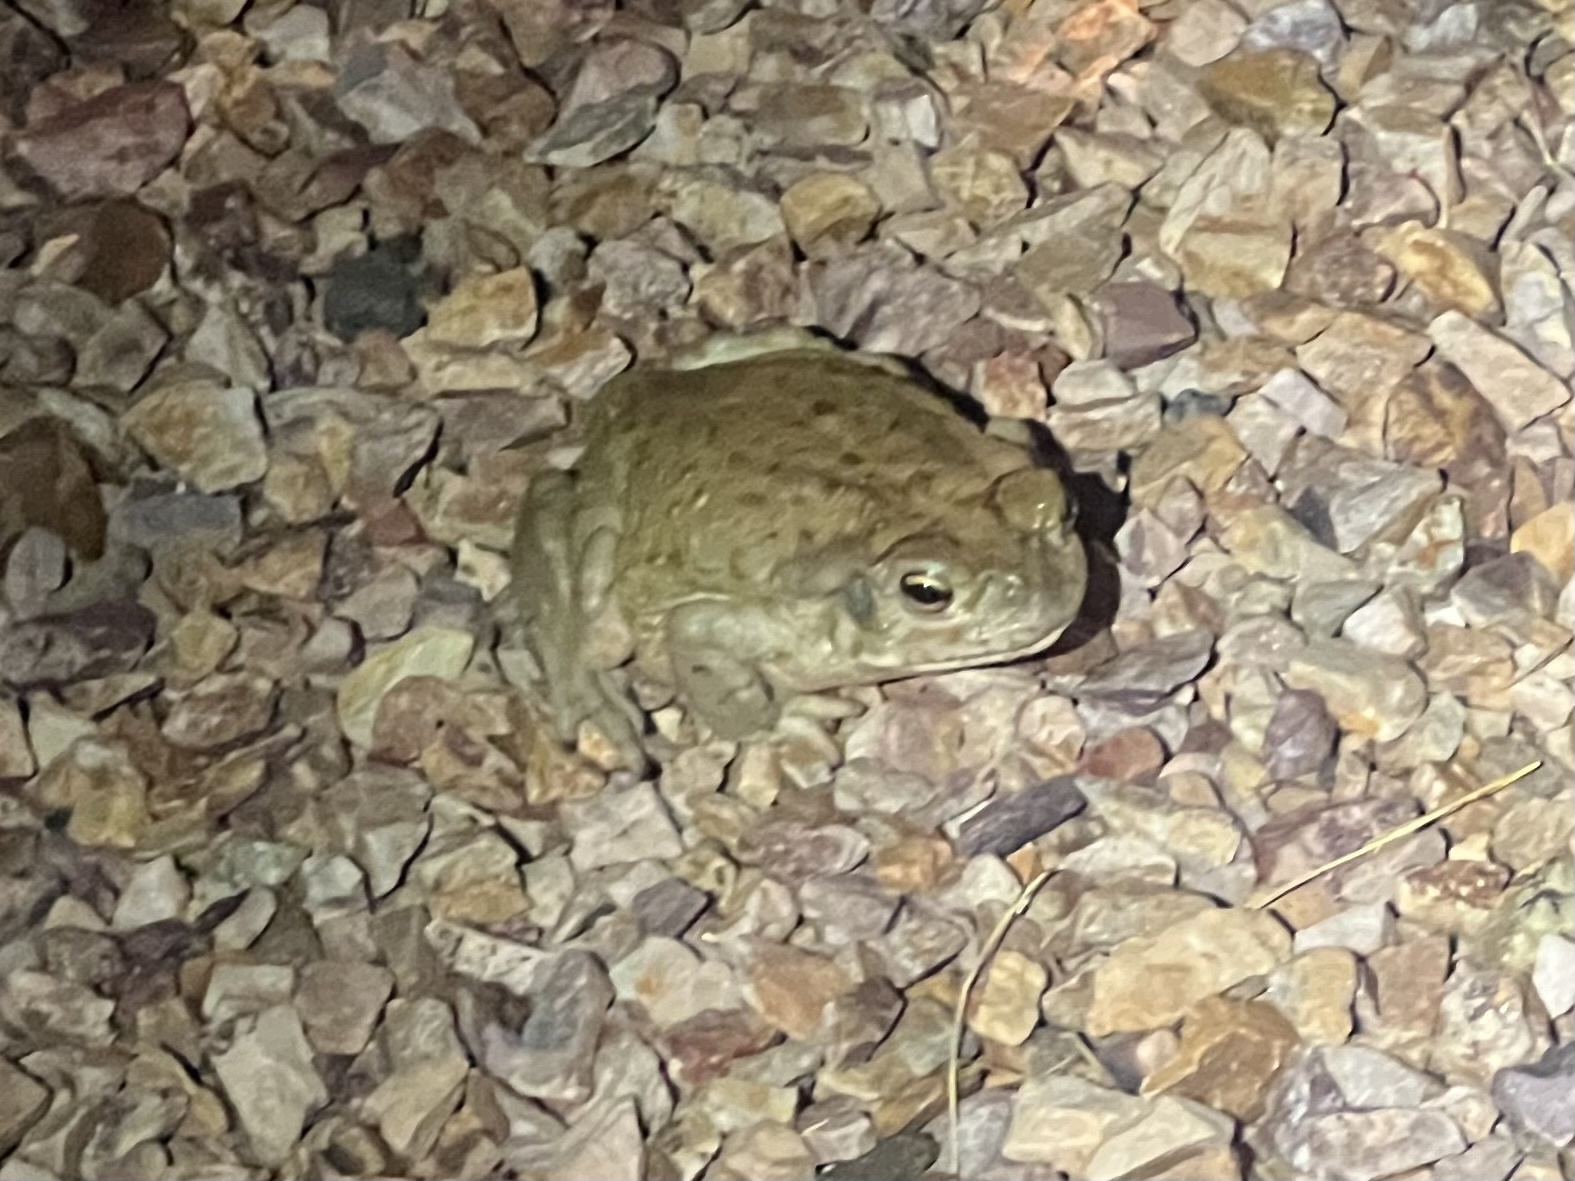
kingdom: Animalia
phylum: Chordata
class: Amphibia
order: Anura
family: Bufonidae
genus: Incilius
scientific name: Incilius alvarius
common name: Sonoran desert toad
